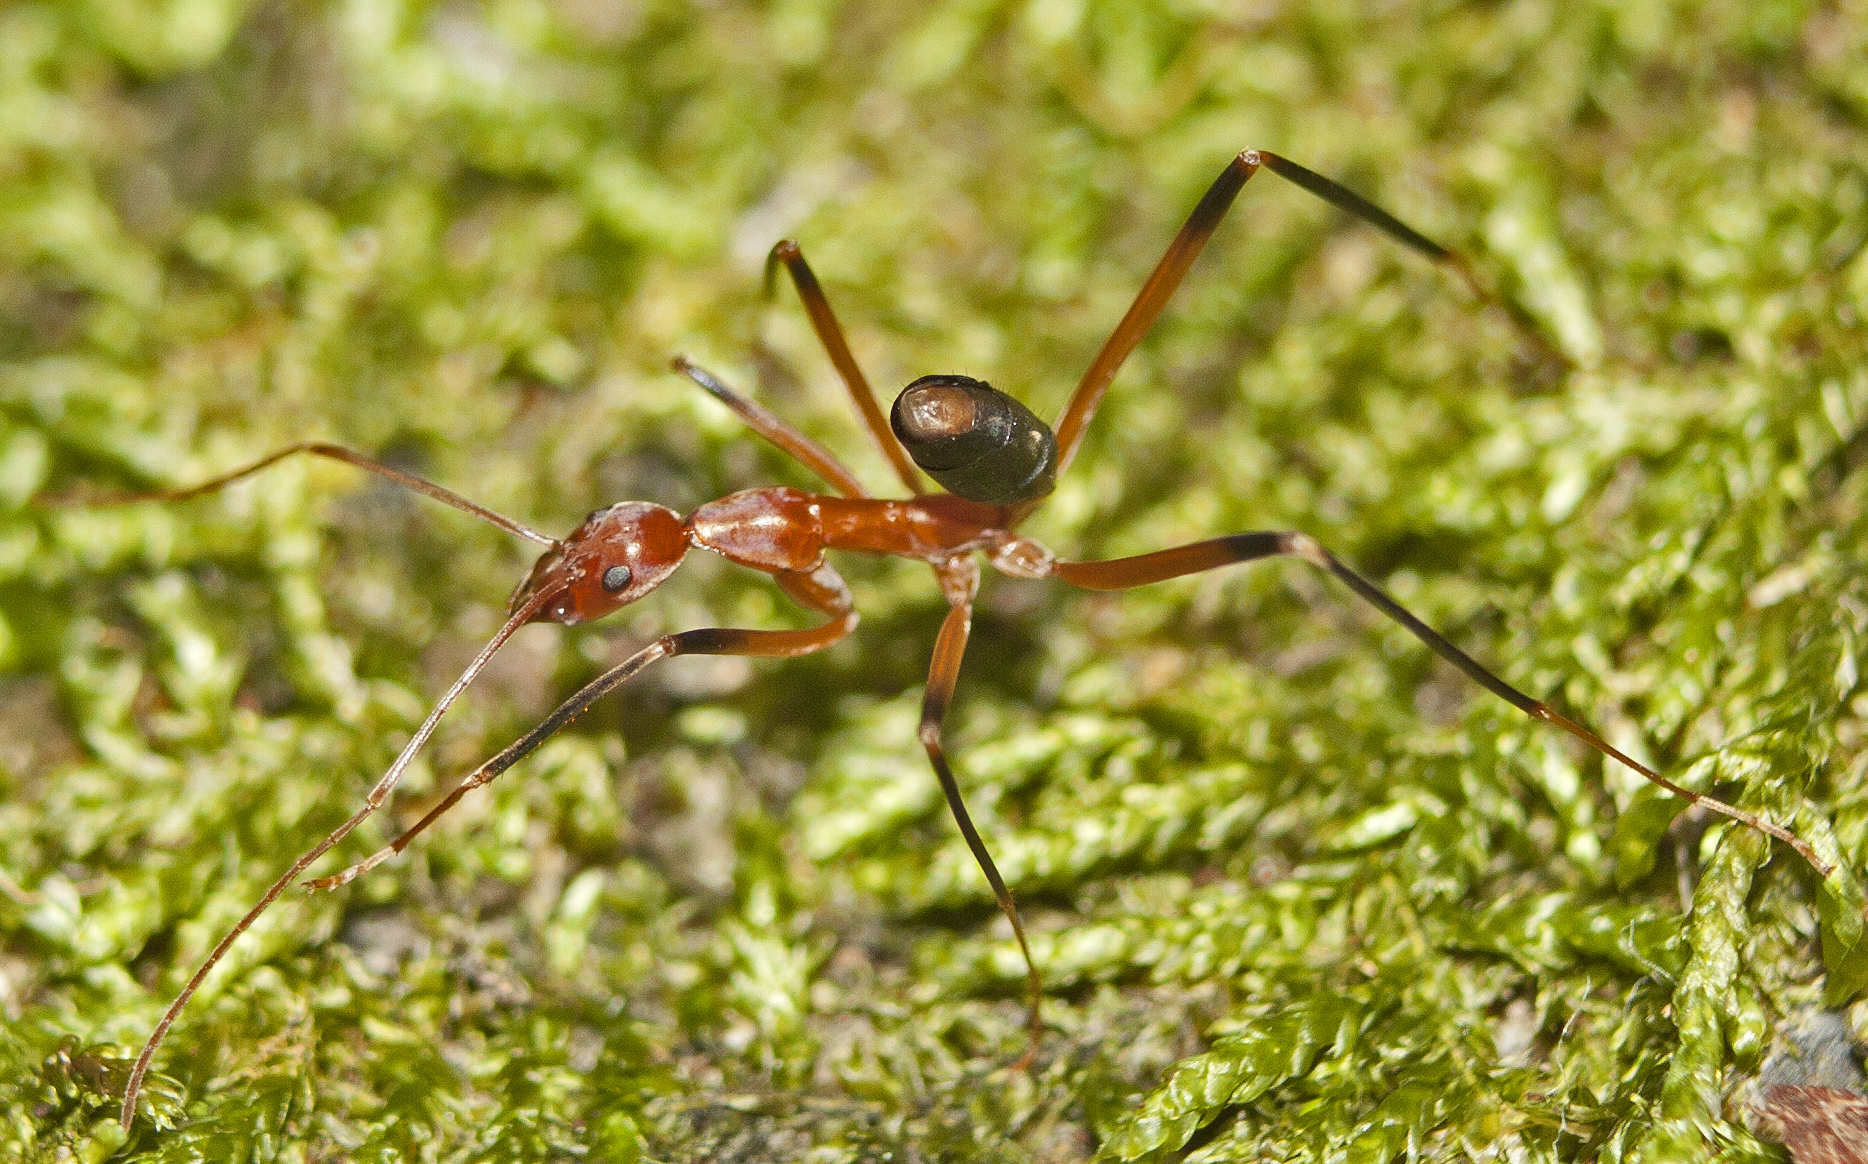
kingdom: Animalia
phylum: Arthropoda
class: Insecta
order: Hymenoptera
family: Formicidae
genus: Leptomyrmex
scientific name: Leptomyrmex cnemidatus
